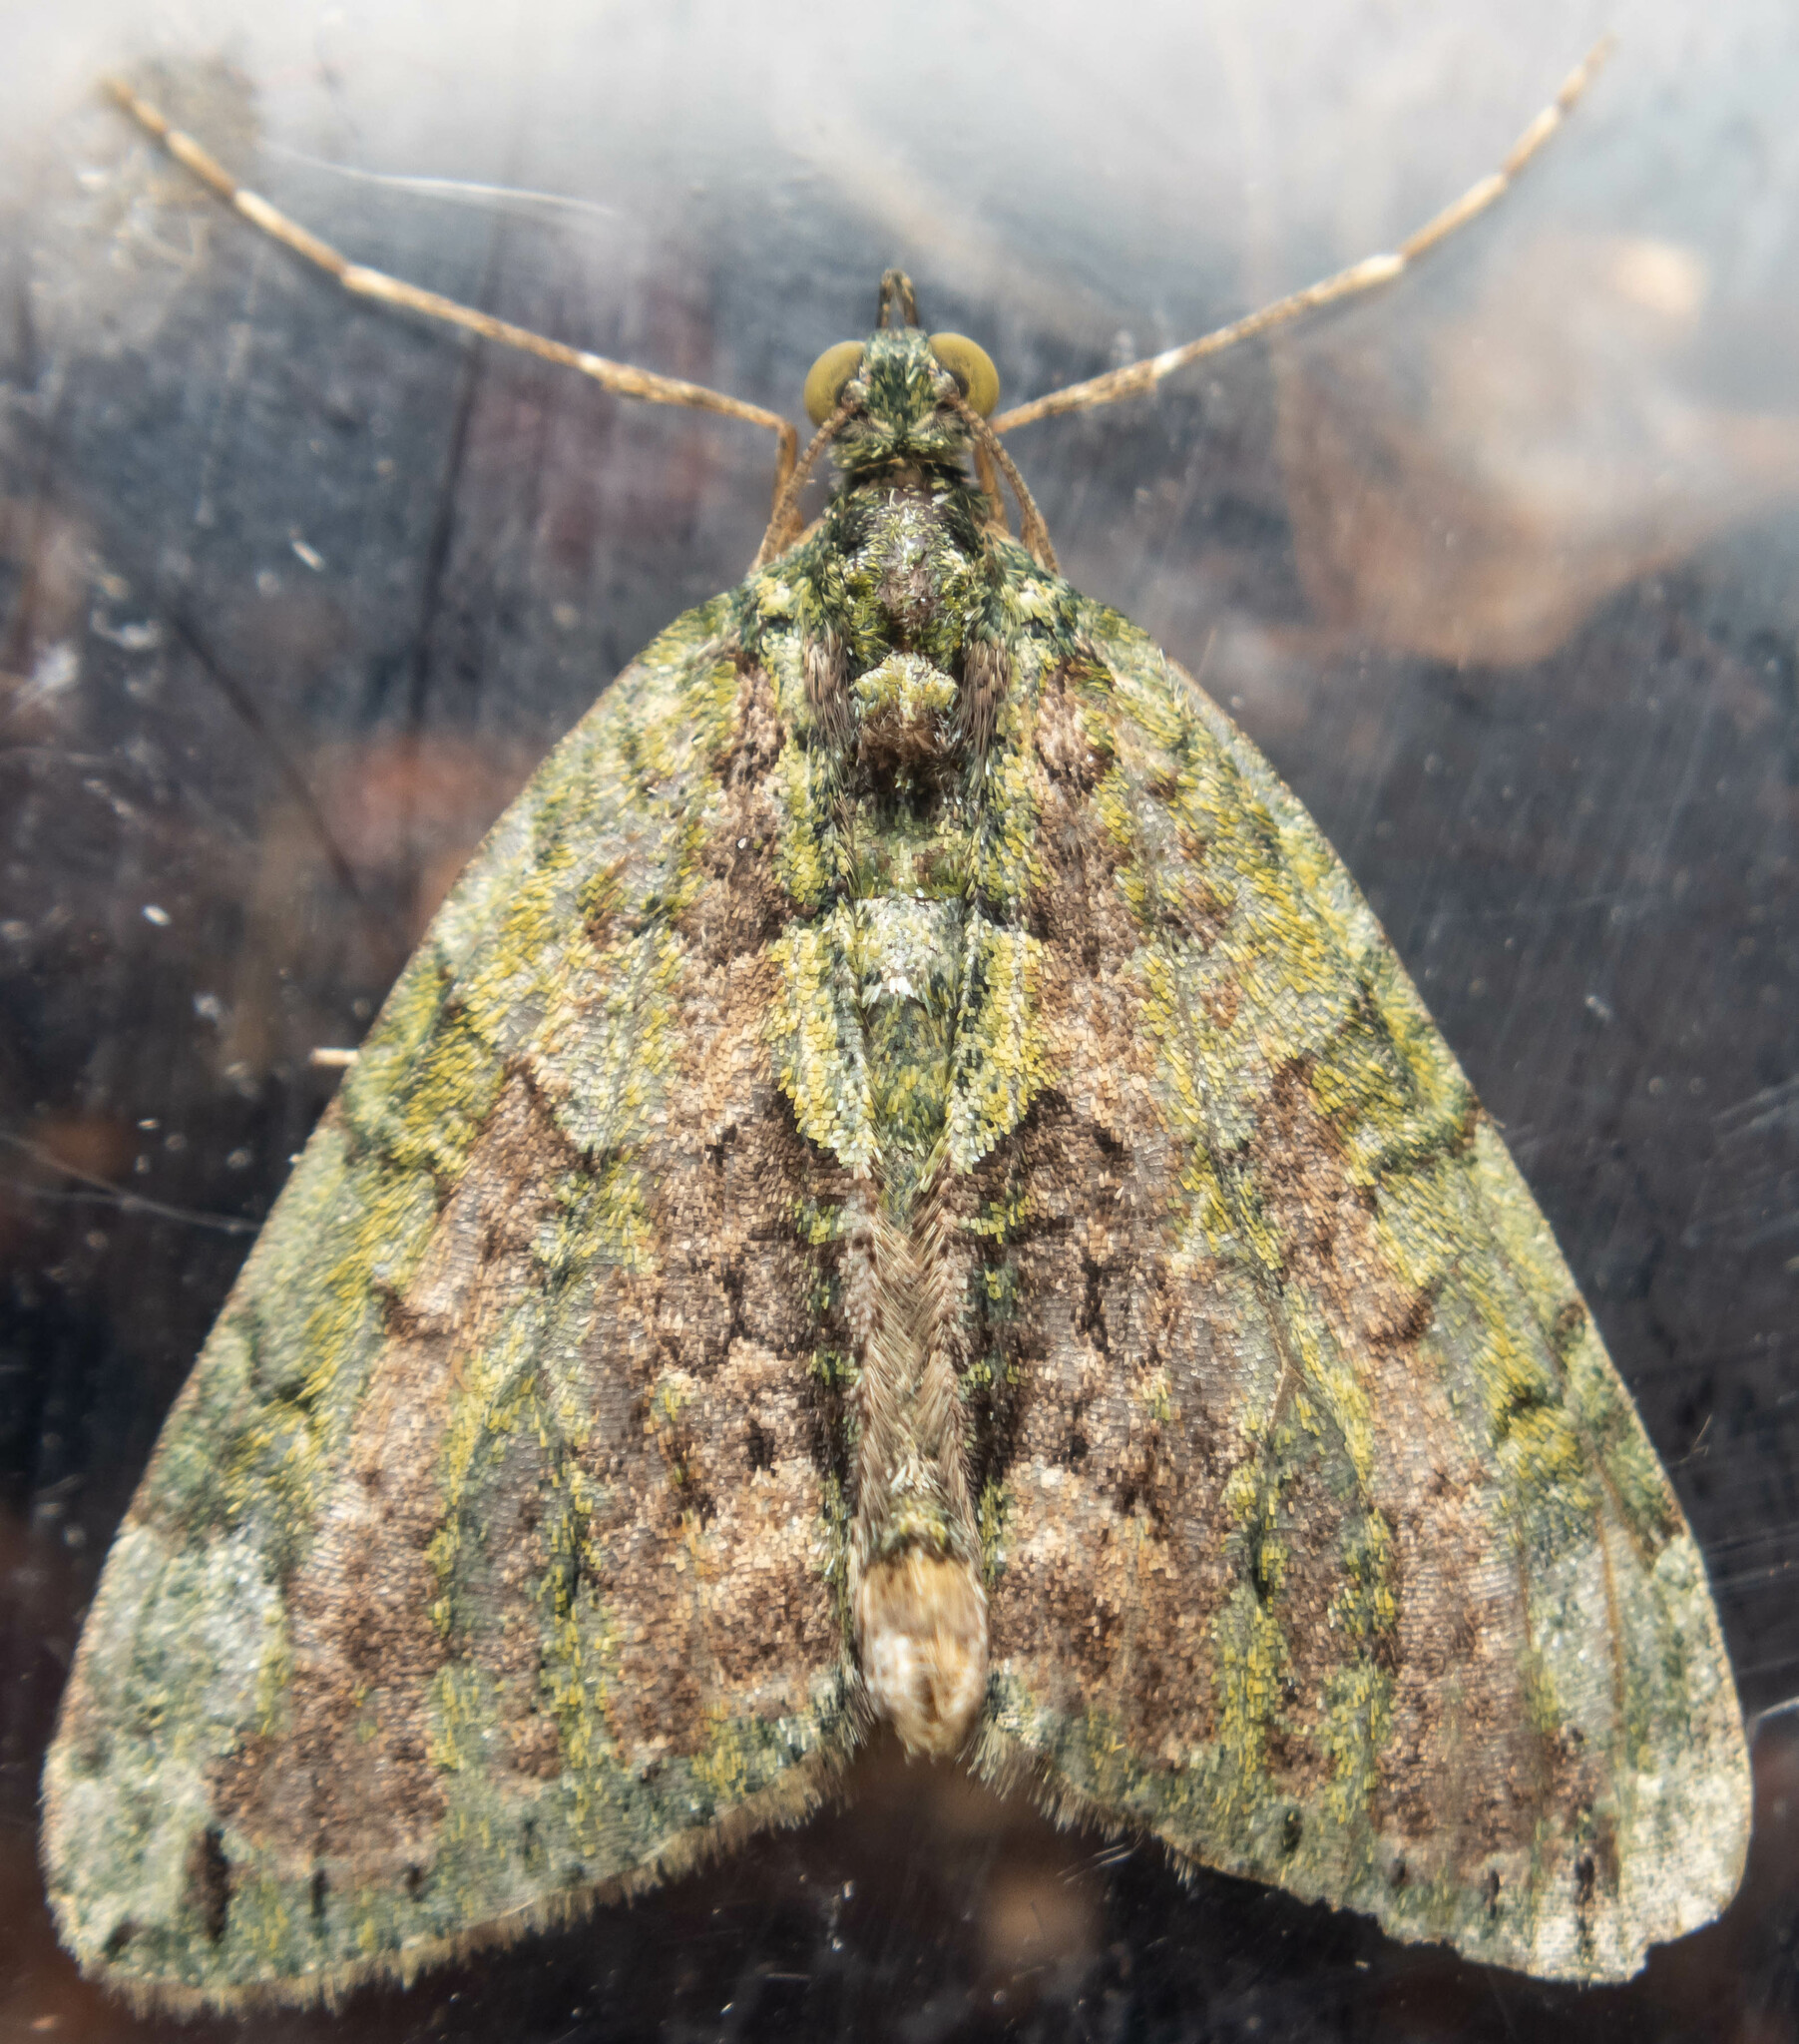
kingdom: Animalia
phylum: Arthropoda
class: Insecta
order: Lepidoptera
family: Geometridae
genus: Chloroclysta
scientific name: Chloroclysta siterata
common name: Red-green carpet
